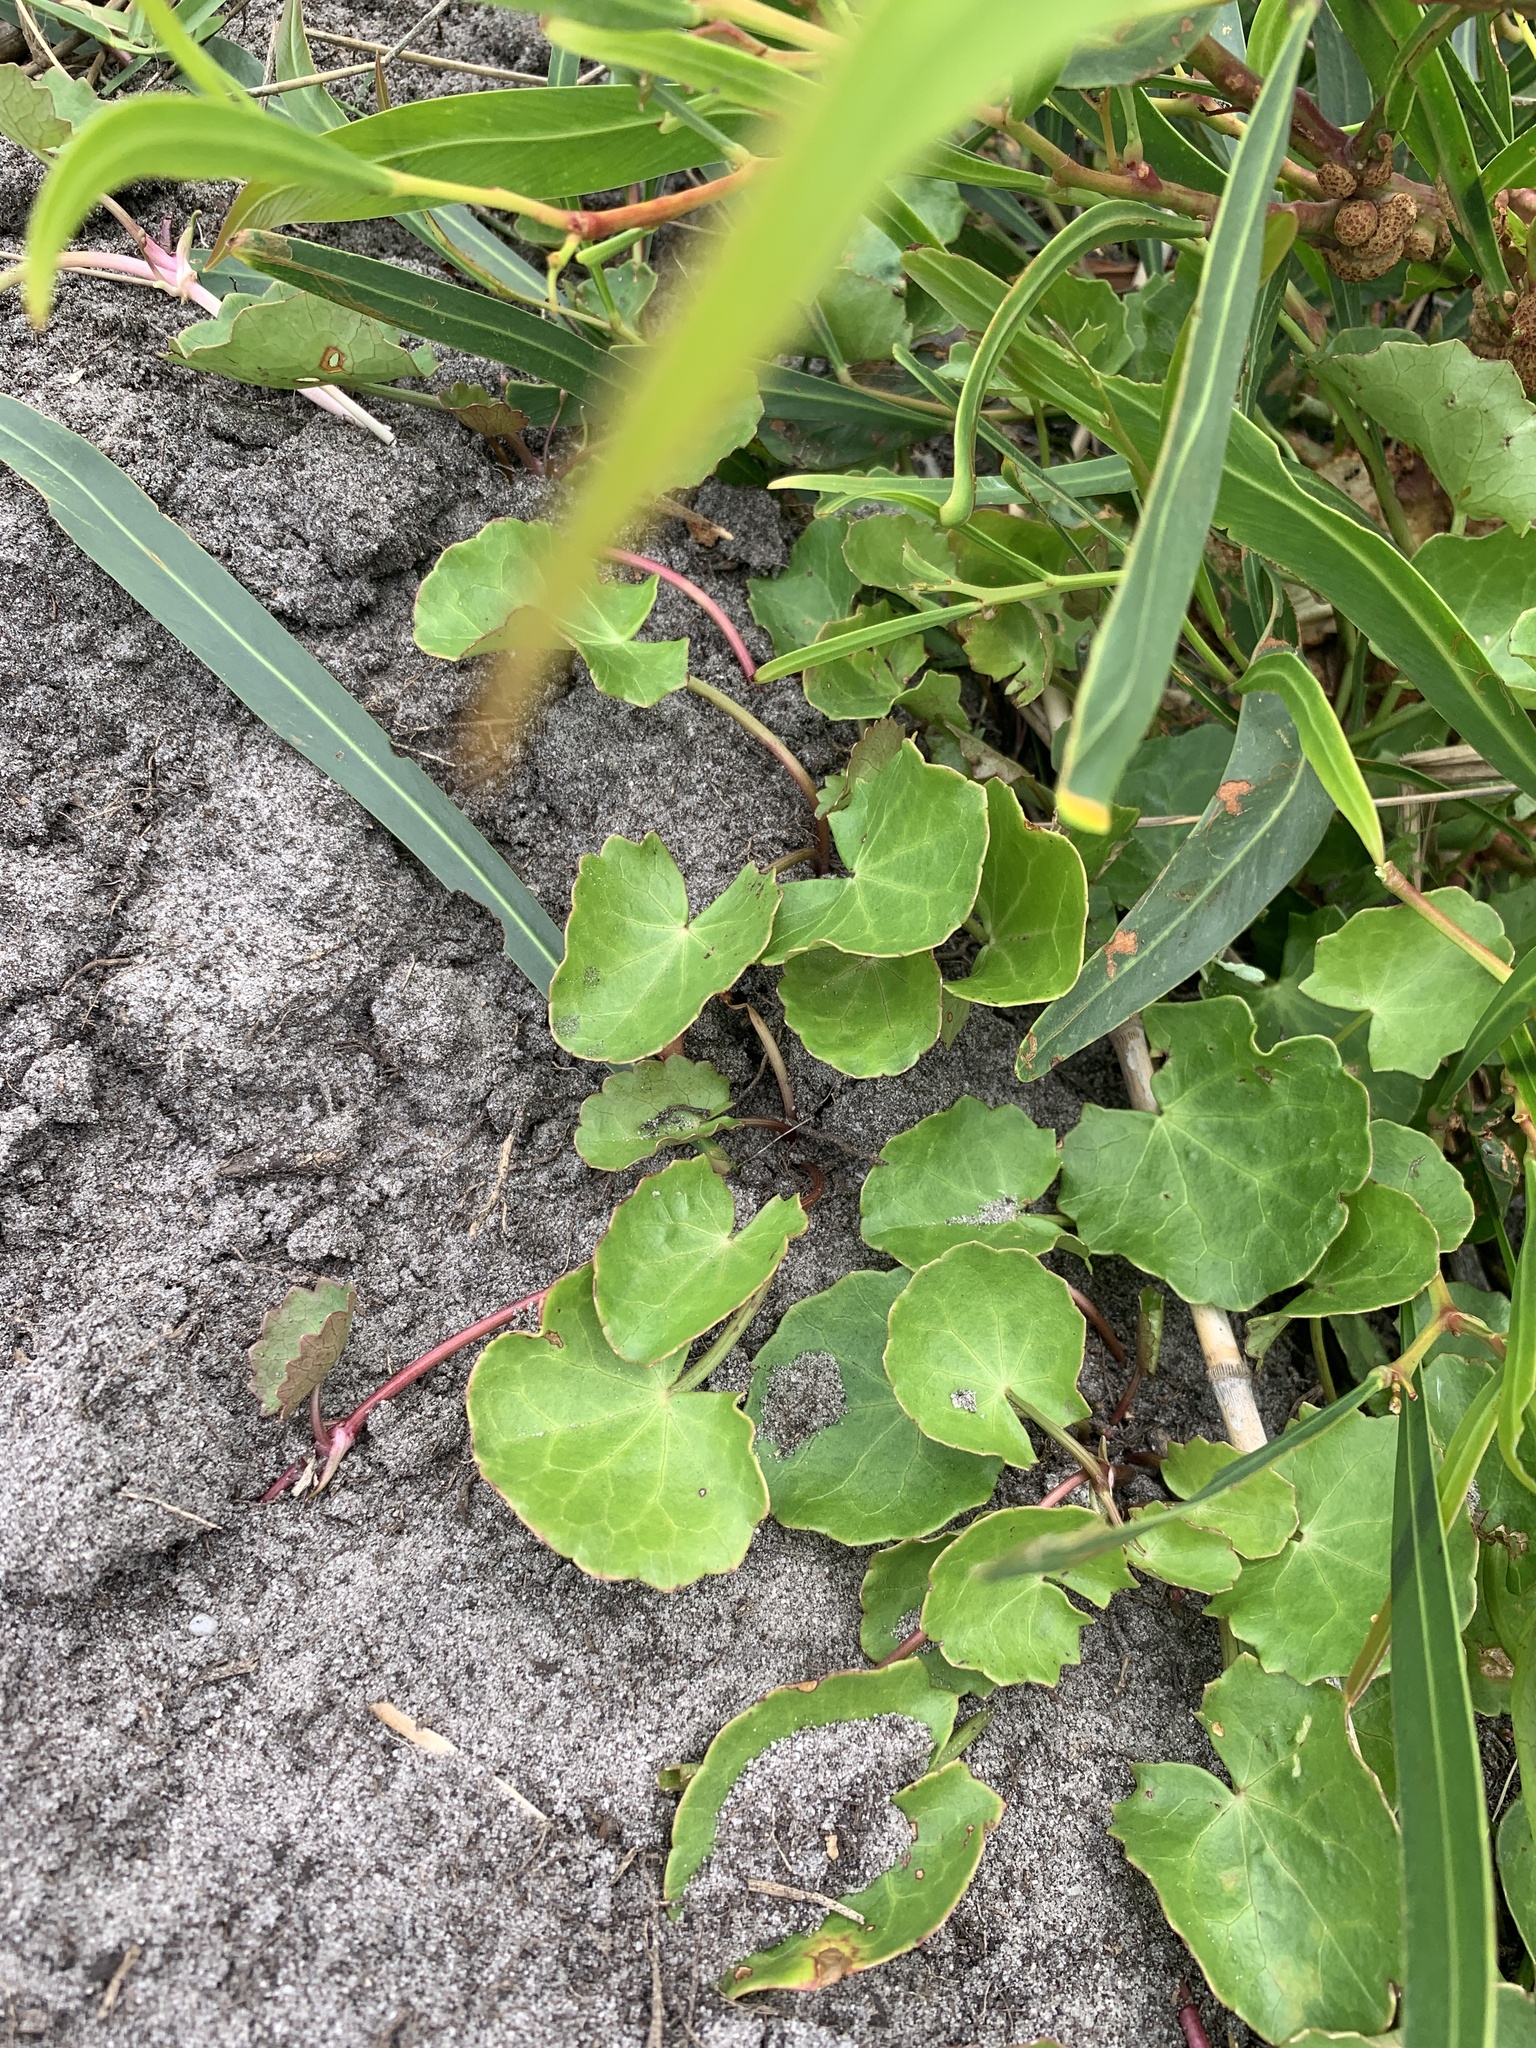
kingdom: Plantae
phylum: Tracheophyta
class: Magnoliopsida
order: Apiales
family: Apiaceae
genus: Centella
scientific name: Centella asiatica
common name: Spadeleaf
